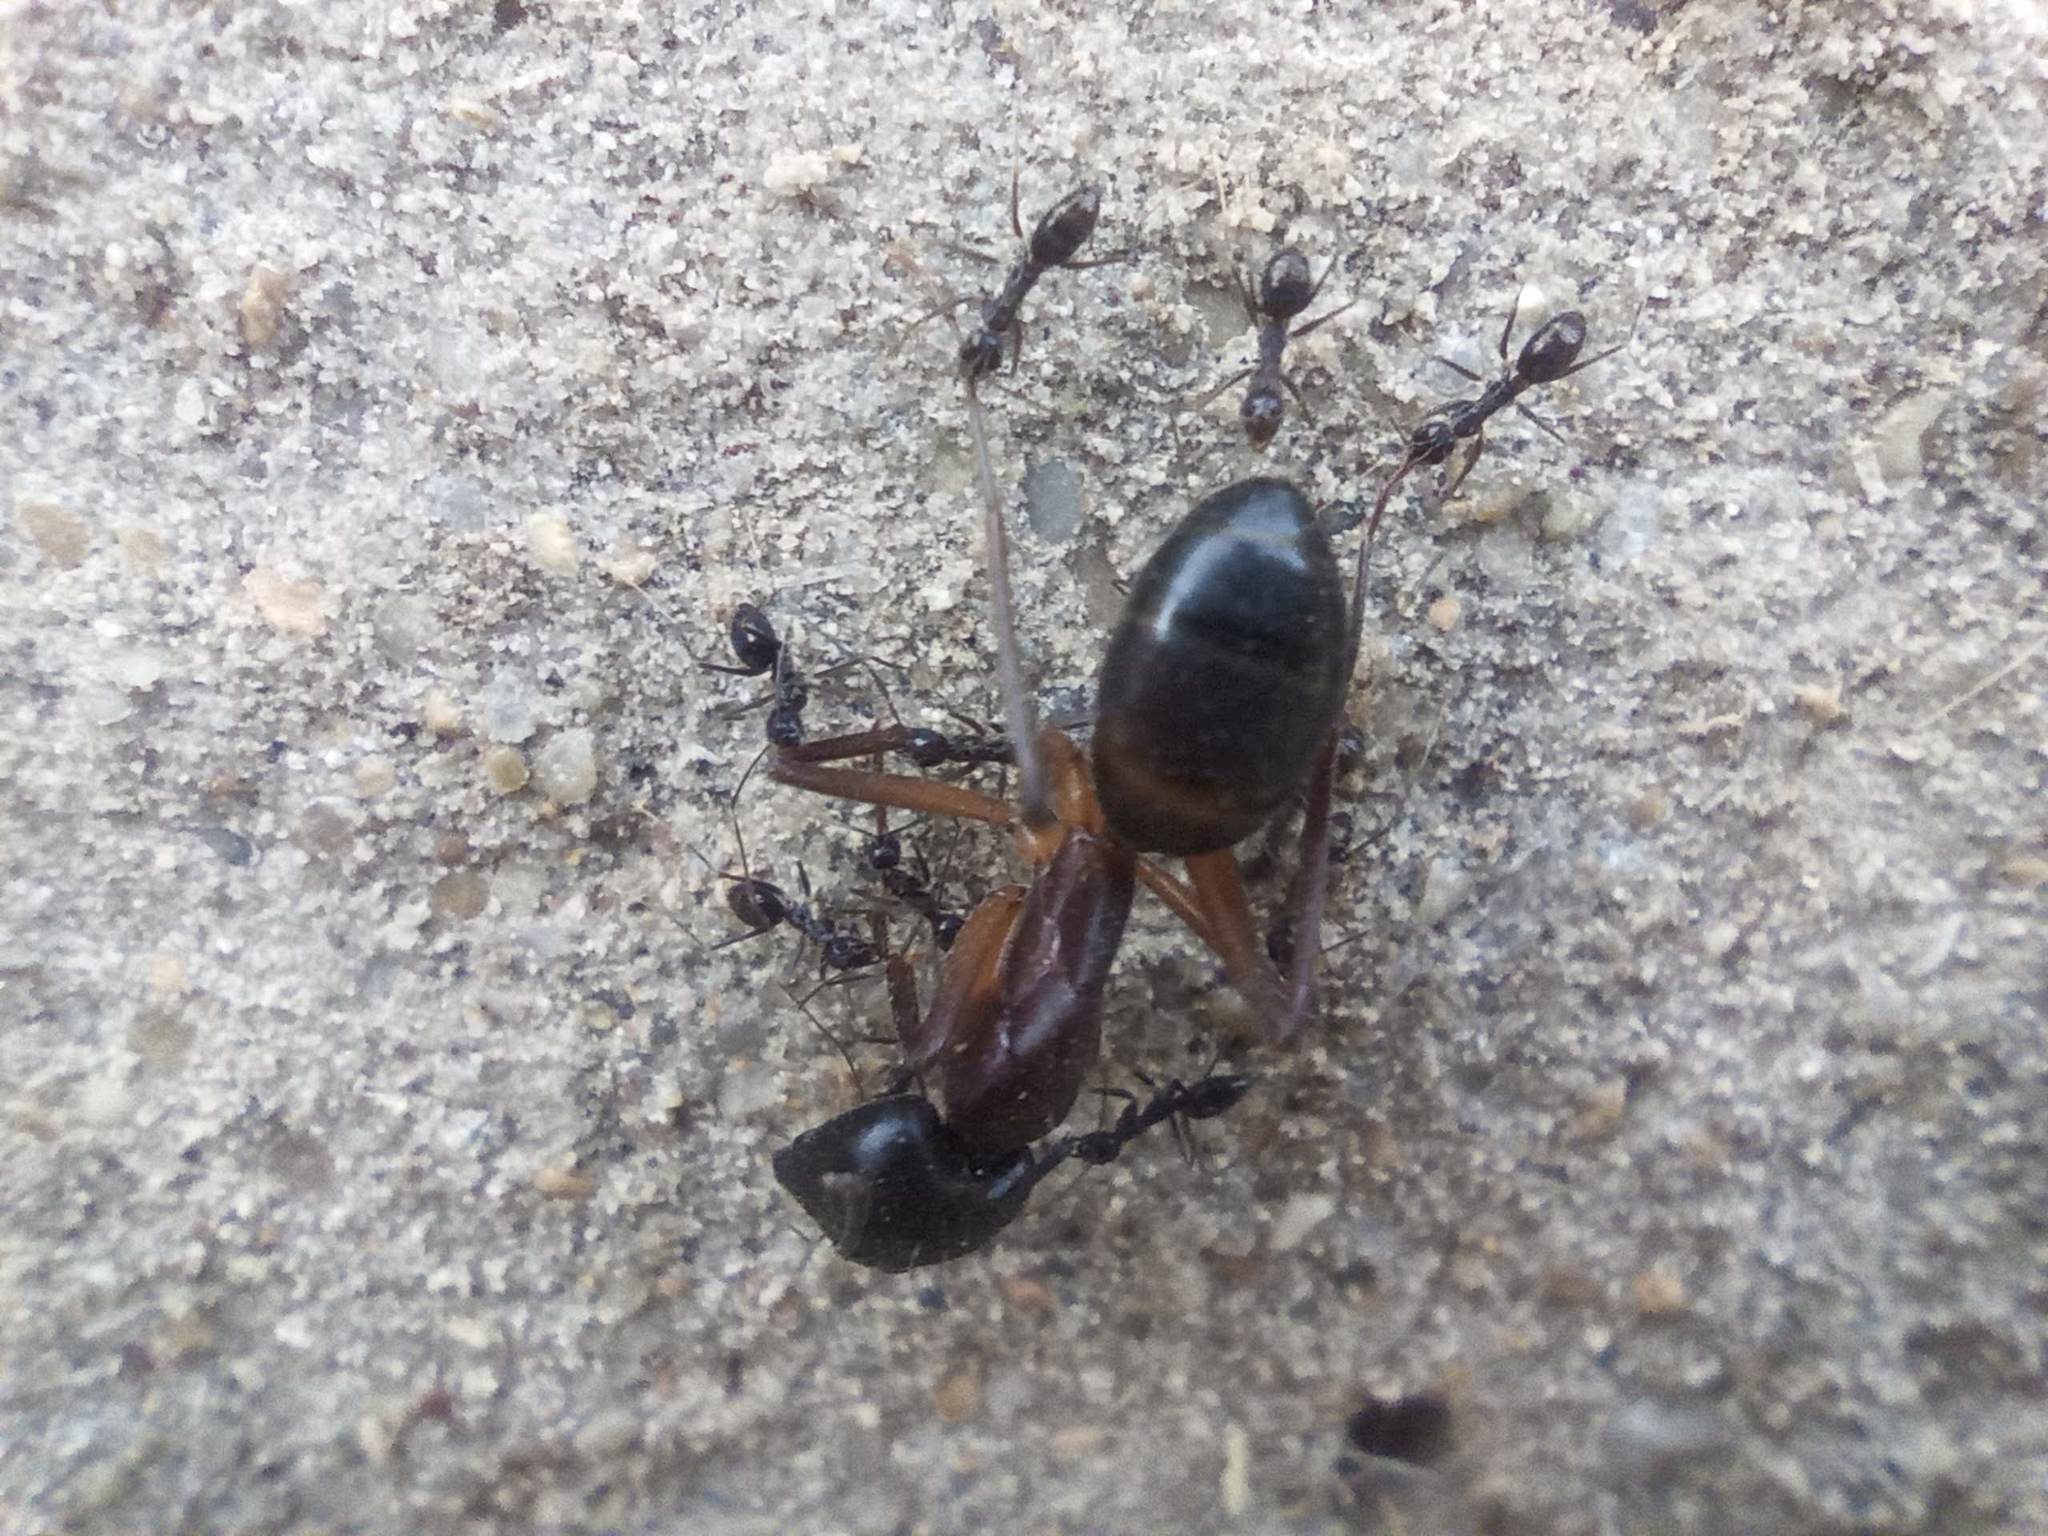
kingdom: Animalia
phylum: Arthropoda
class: Insecta
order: Hymenoptera
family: Formicidae
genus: Paratrechina
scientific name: Paratrechina longicornis
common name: Longhorned crazy ant
